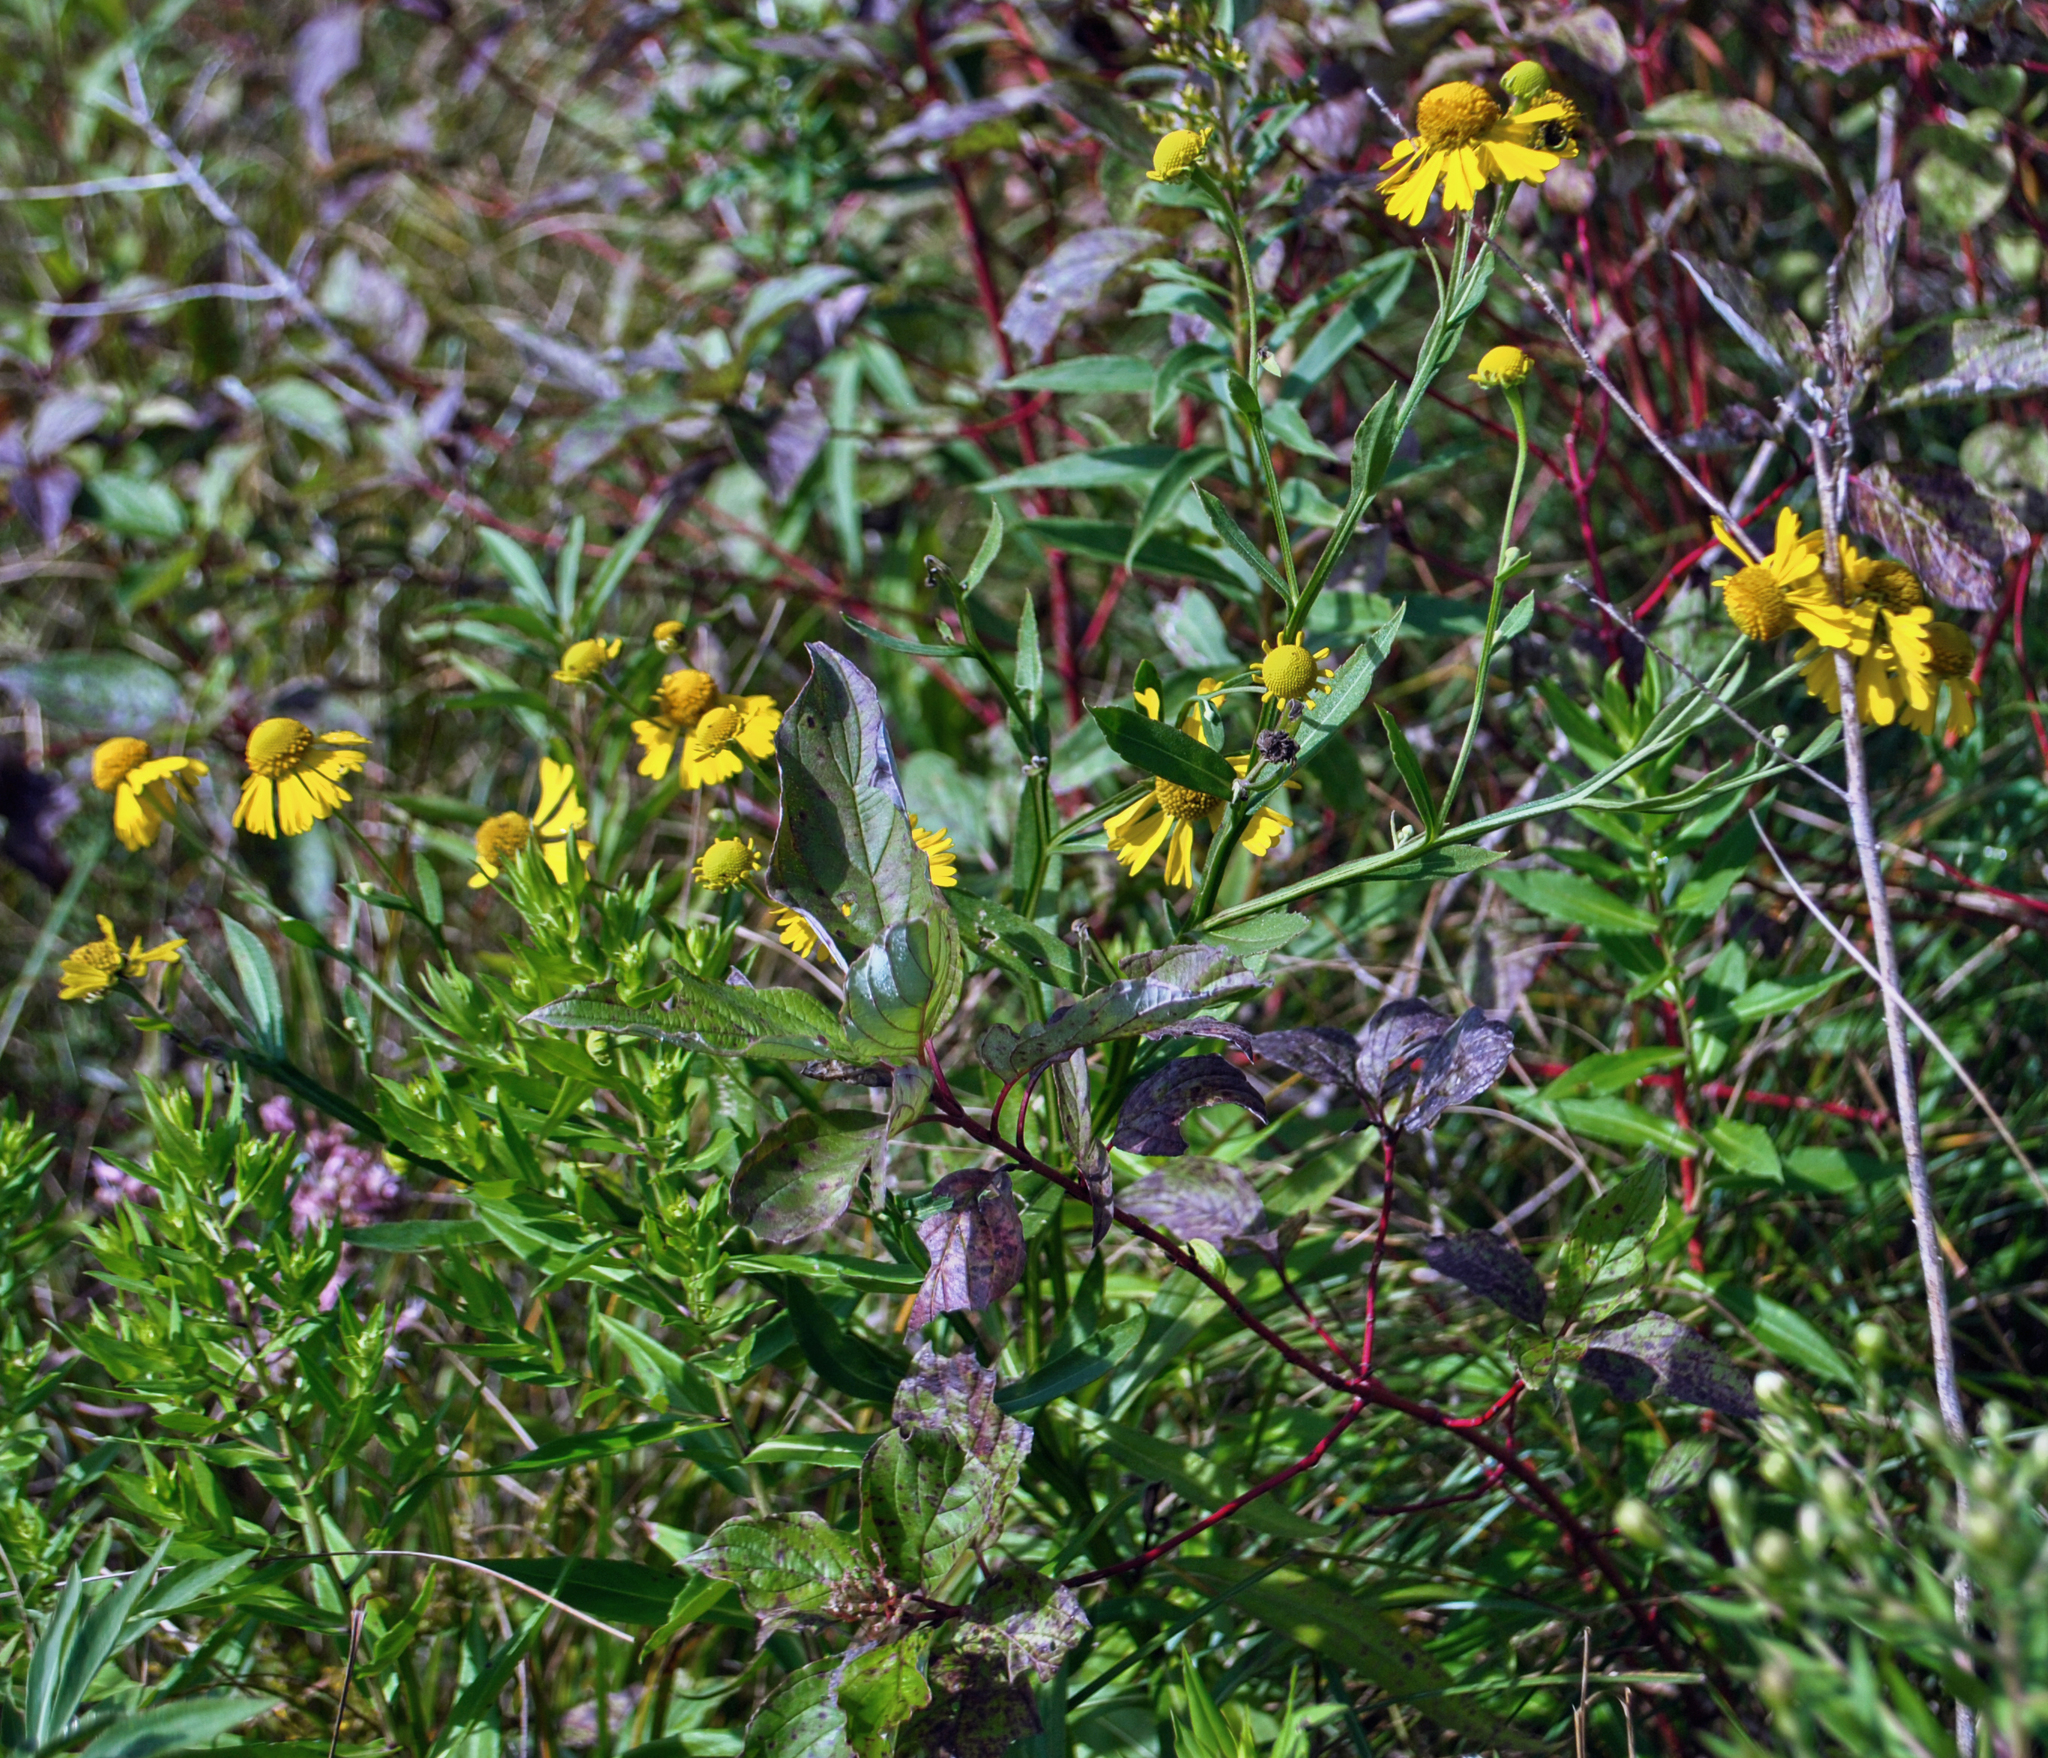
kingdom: Plantae
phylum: Tracheophyta
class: Magnoliopsida
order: Asterales
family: Asteraceae
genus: Helenium
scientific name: Helenium autumnale
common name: Sneezeweed
